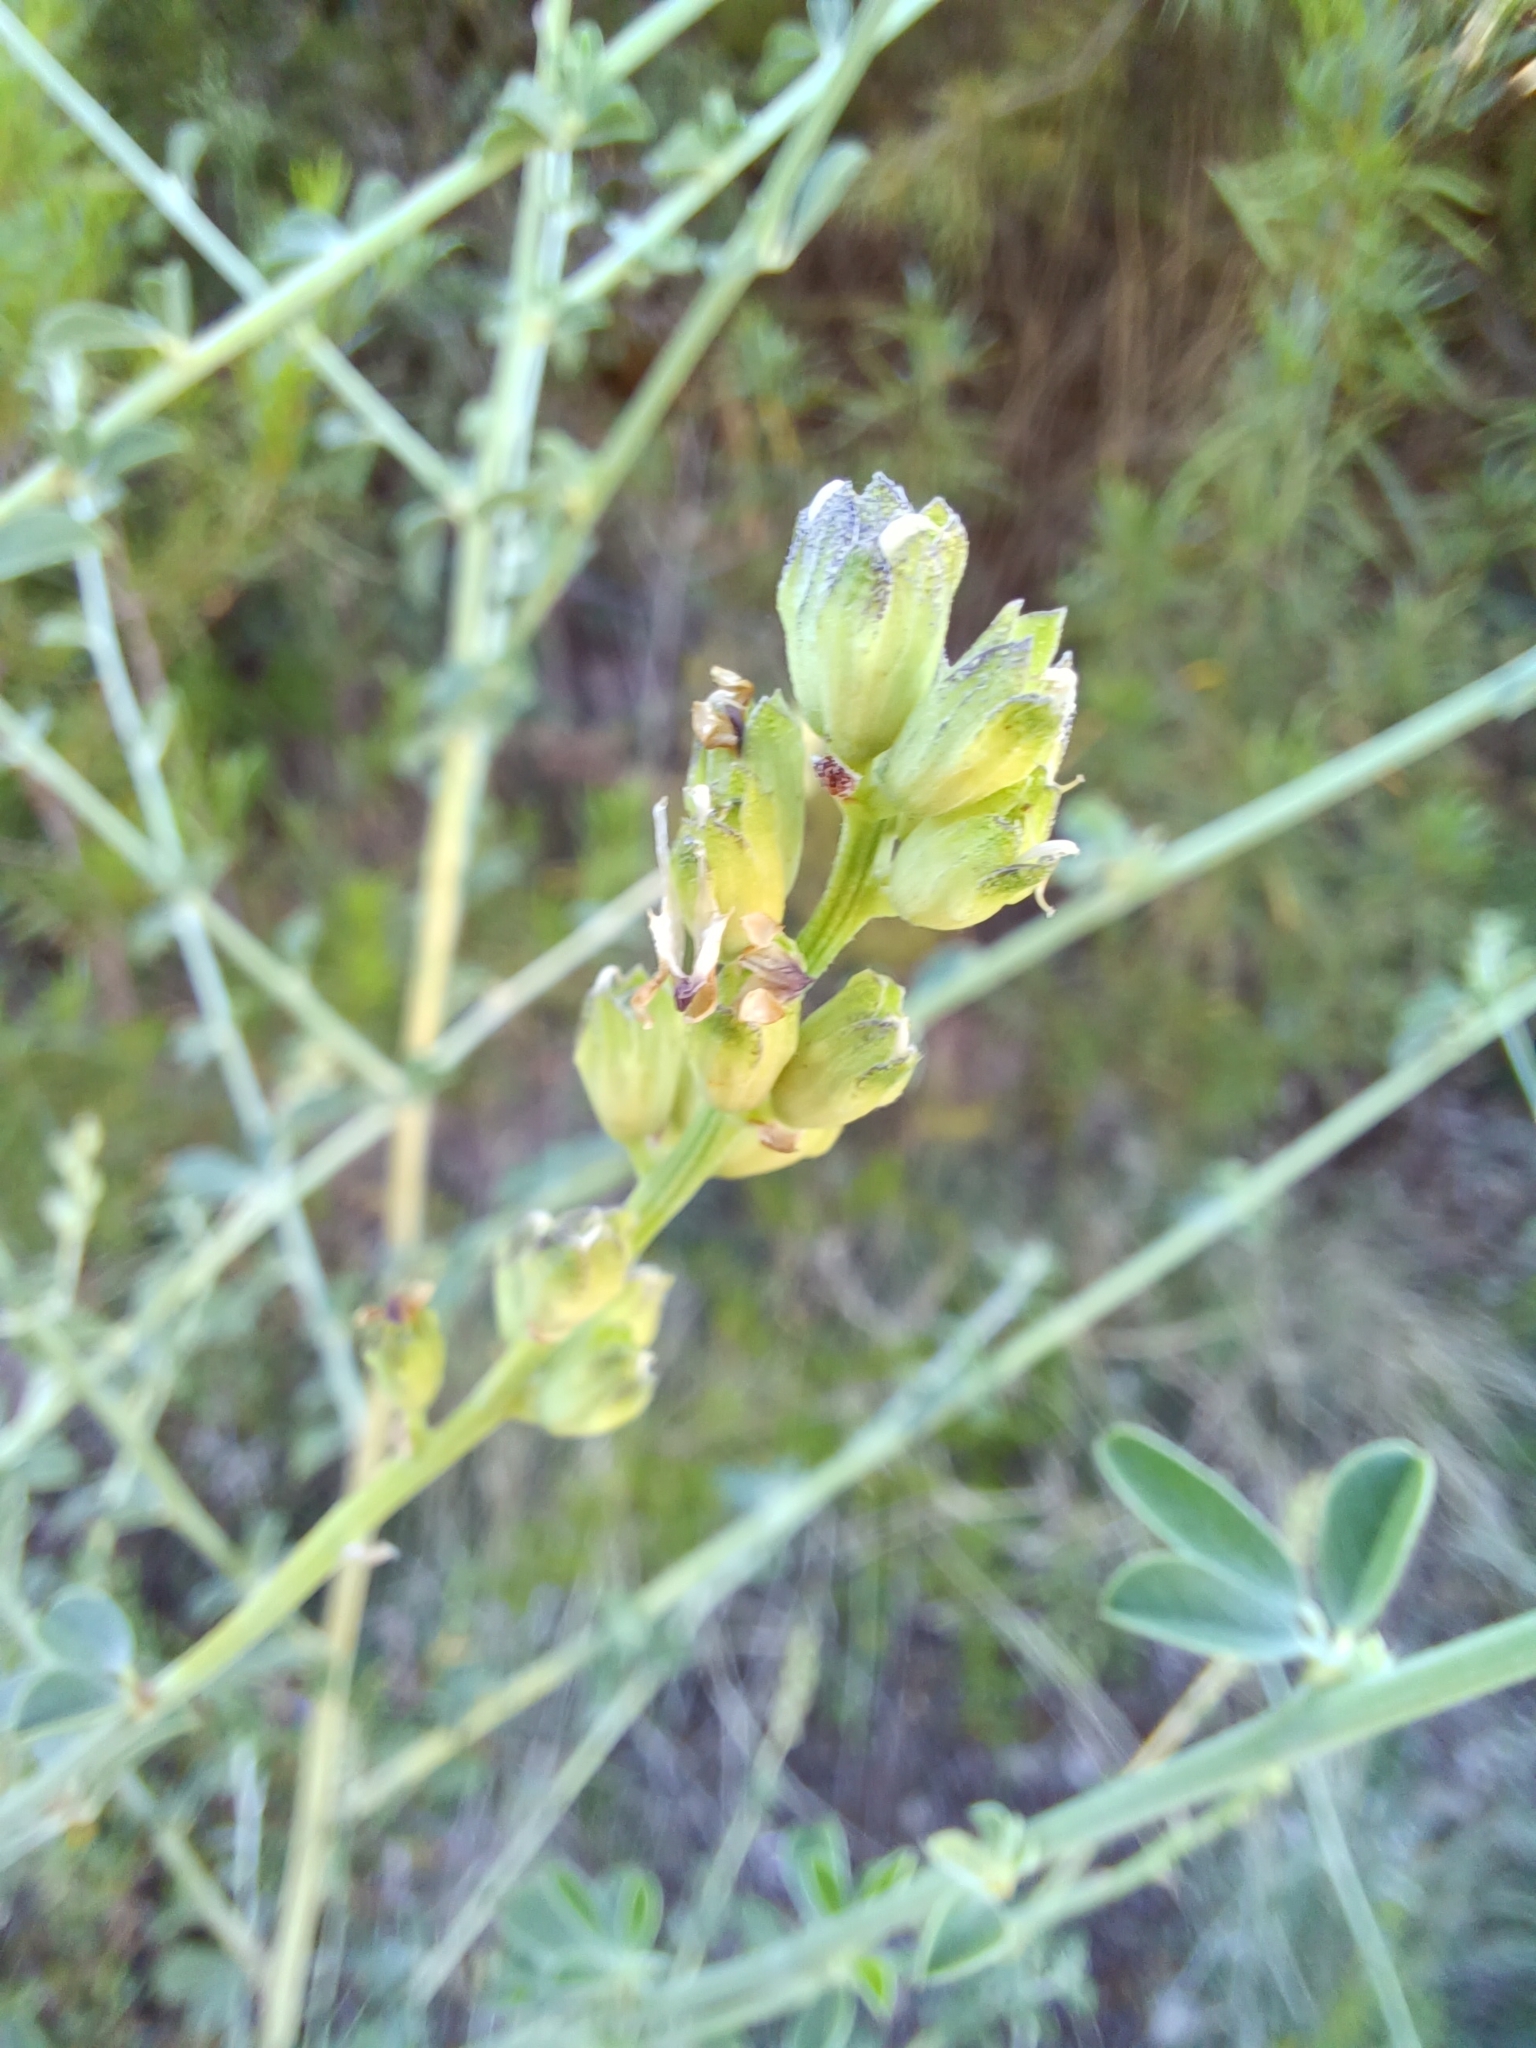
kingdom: Plantae
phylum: Tracheophyta
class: Magnoliopsida
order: Fabales
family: Fabaceae
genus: Psoralea
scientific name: Psoralea striata
